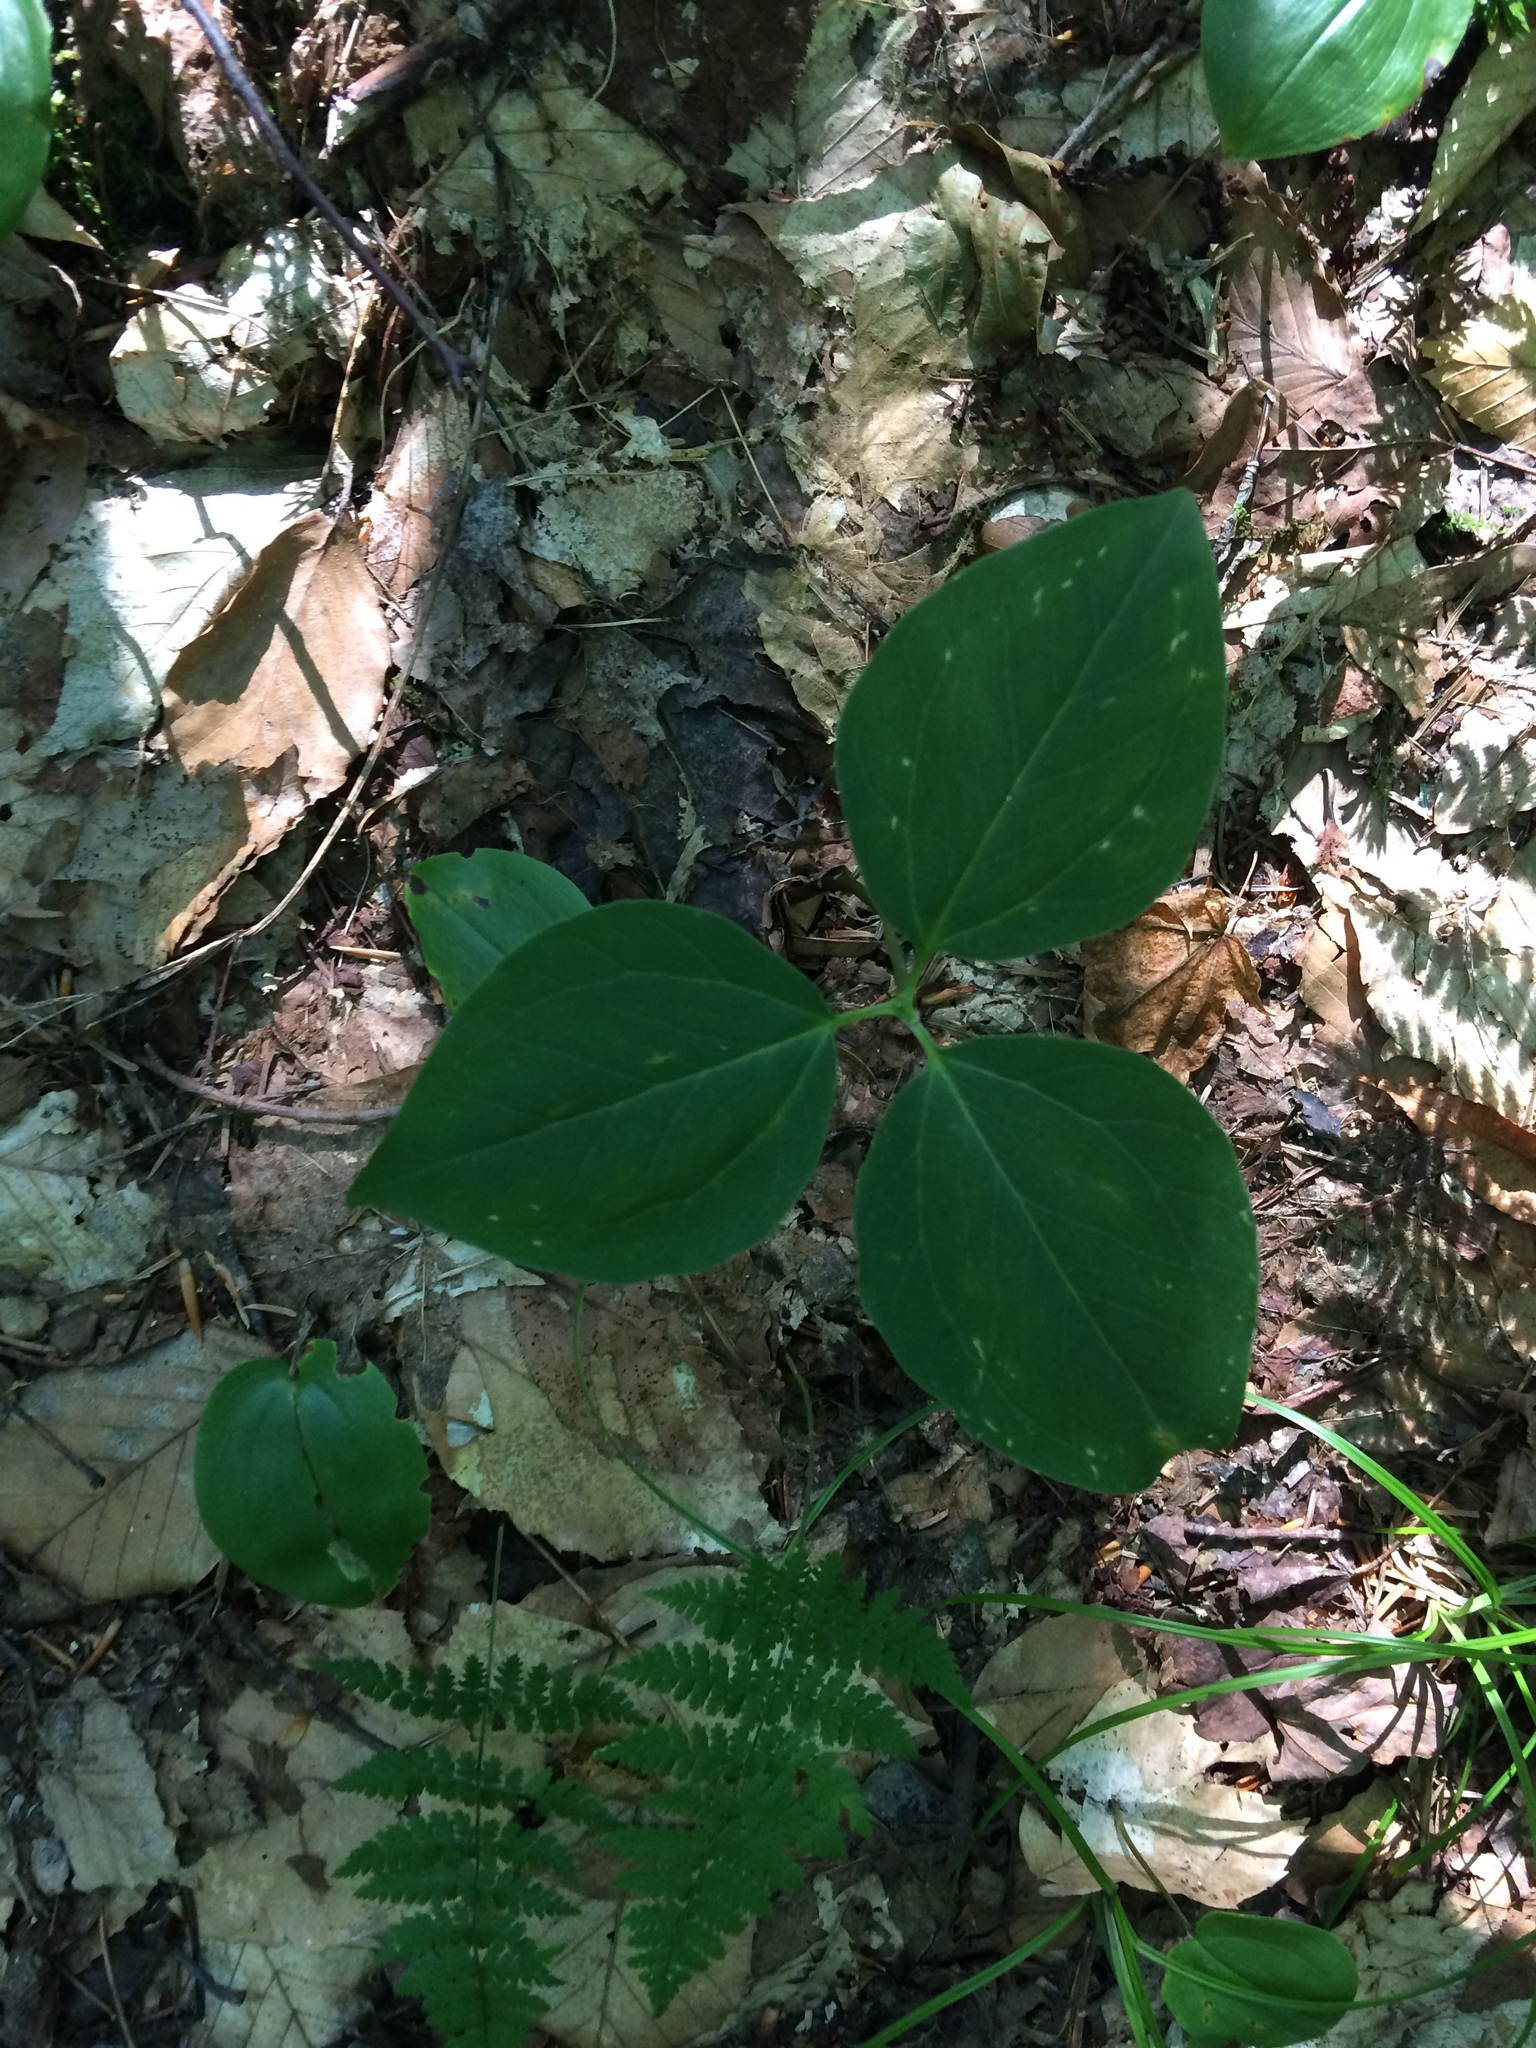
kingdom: Plantae
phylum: Tracheophyta
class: Liliopsida
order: Liliales
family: Melanthiaceae
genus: Trillium
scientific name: Trillium undulatum
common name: Paint trillium
